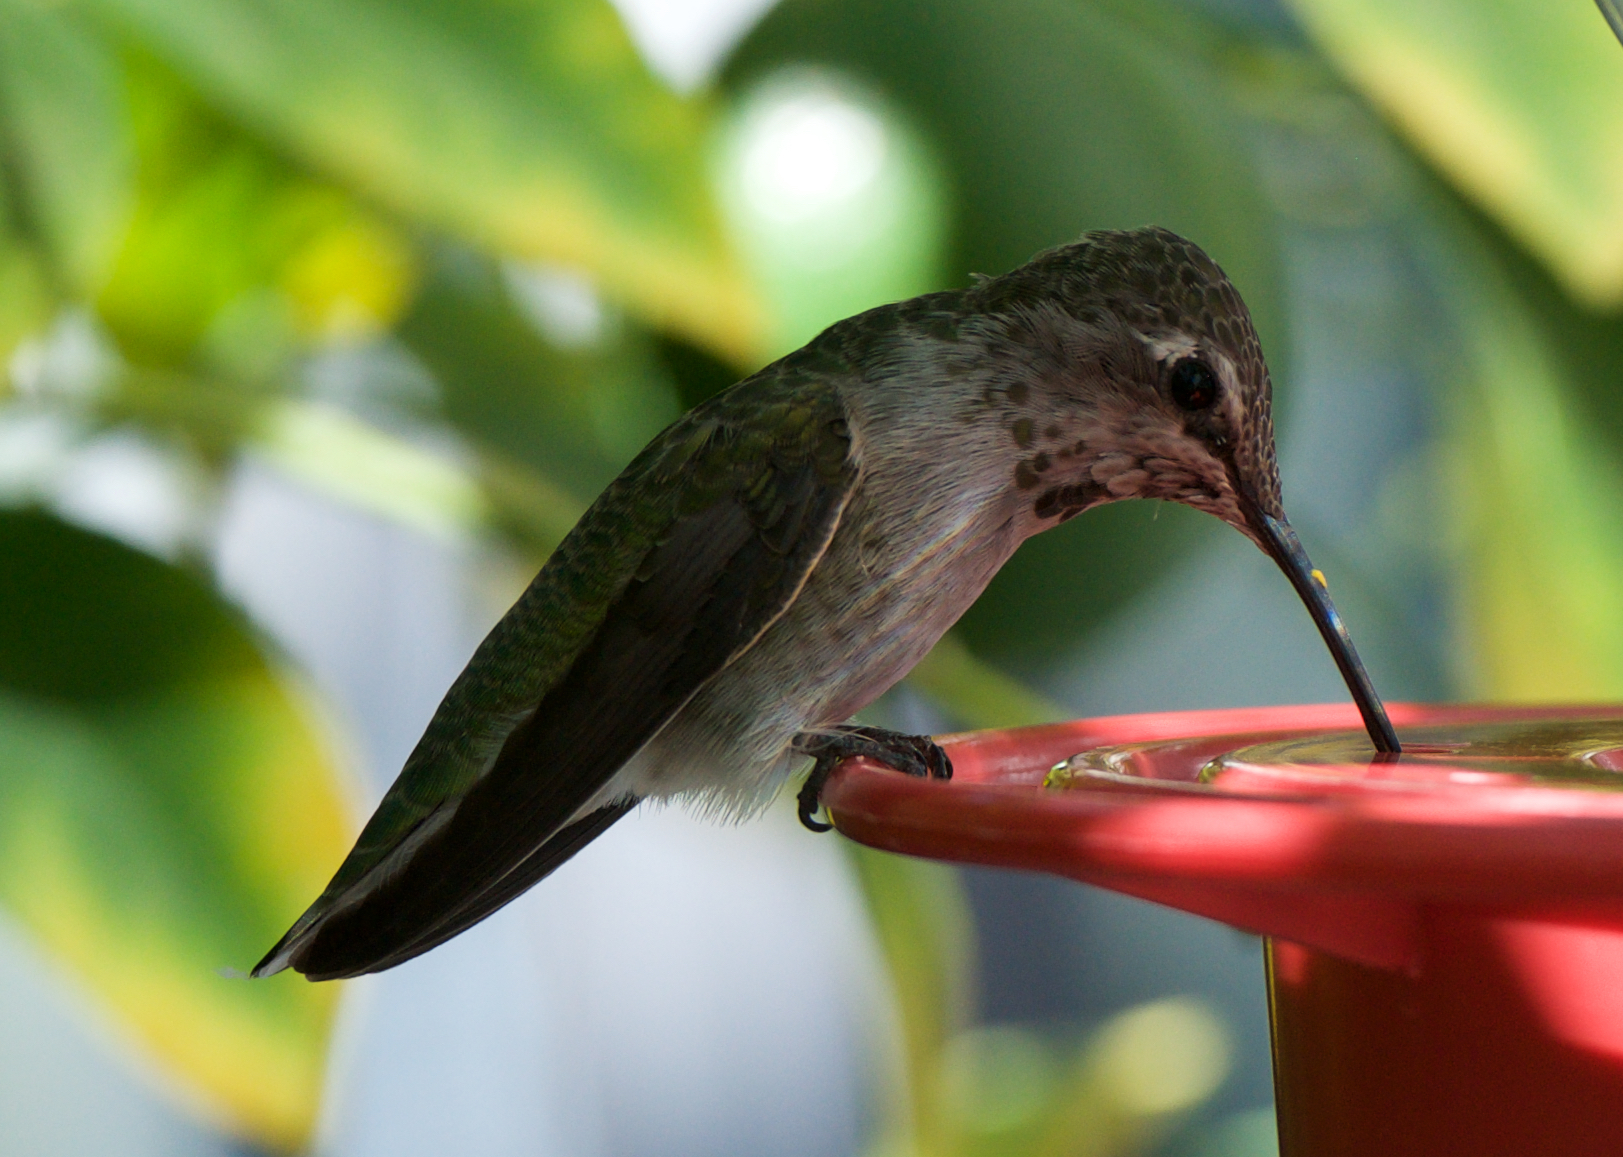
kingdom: Animalia
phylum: Chordata
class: Aves
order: Apodiformes
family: Trochilidae
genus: Calypte
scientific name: Calypte anna
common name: Anna's hummingbird
